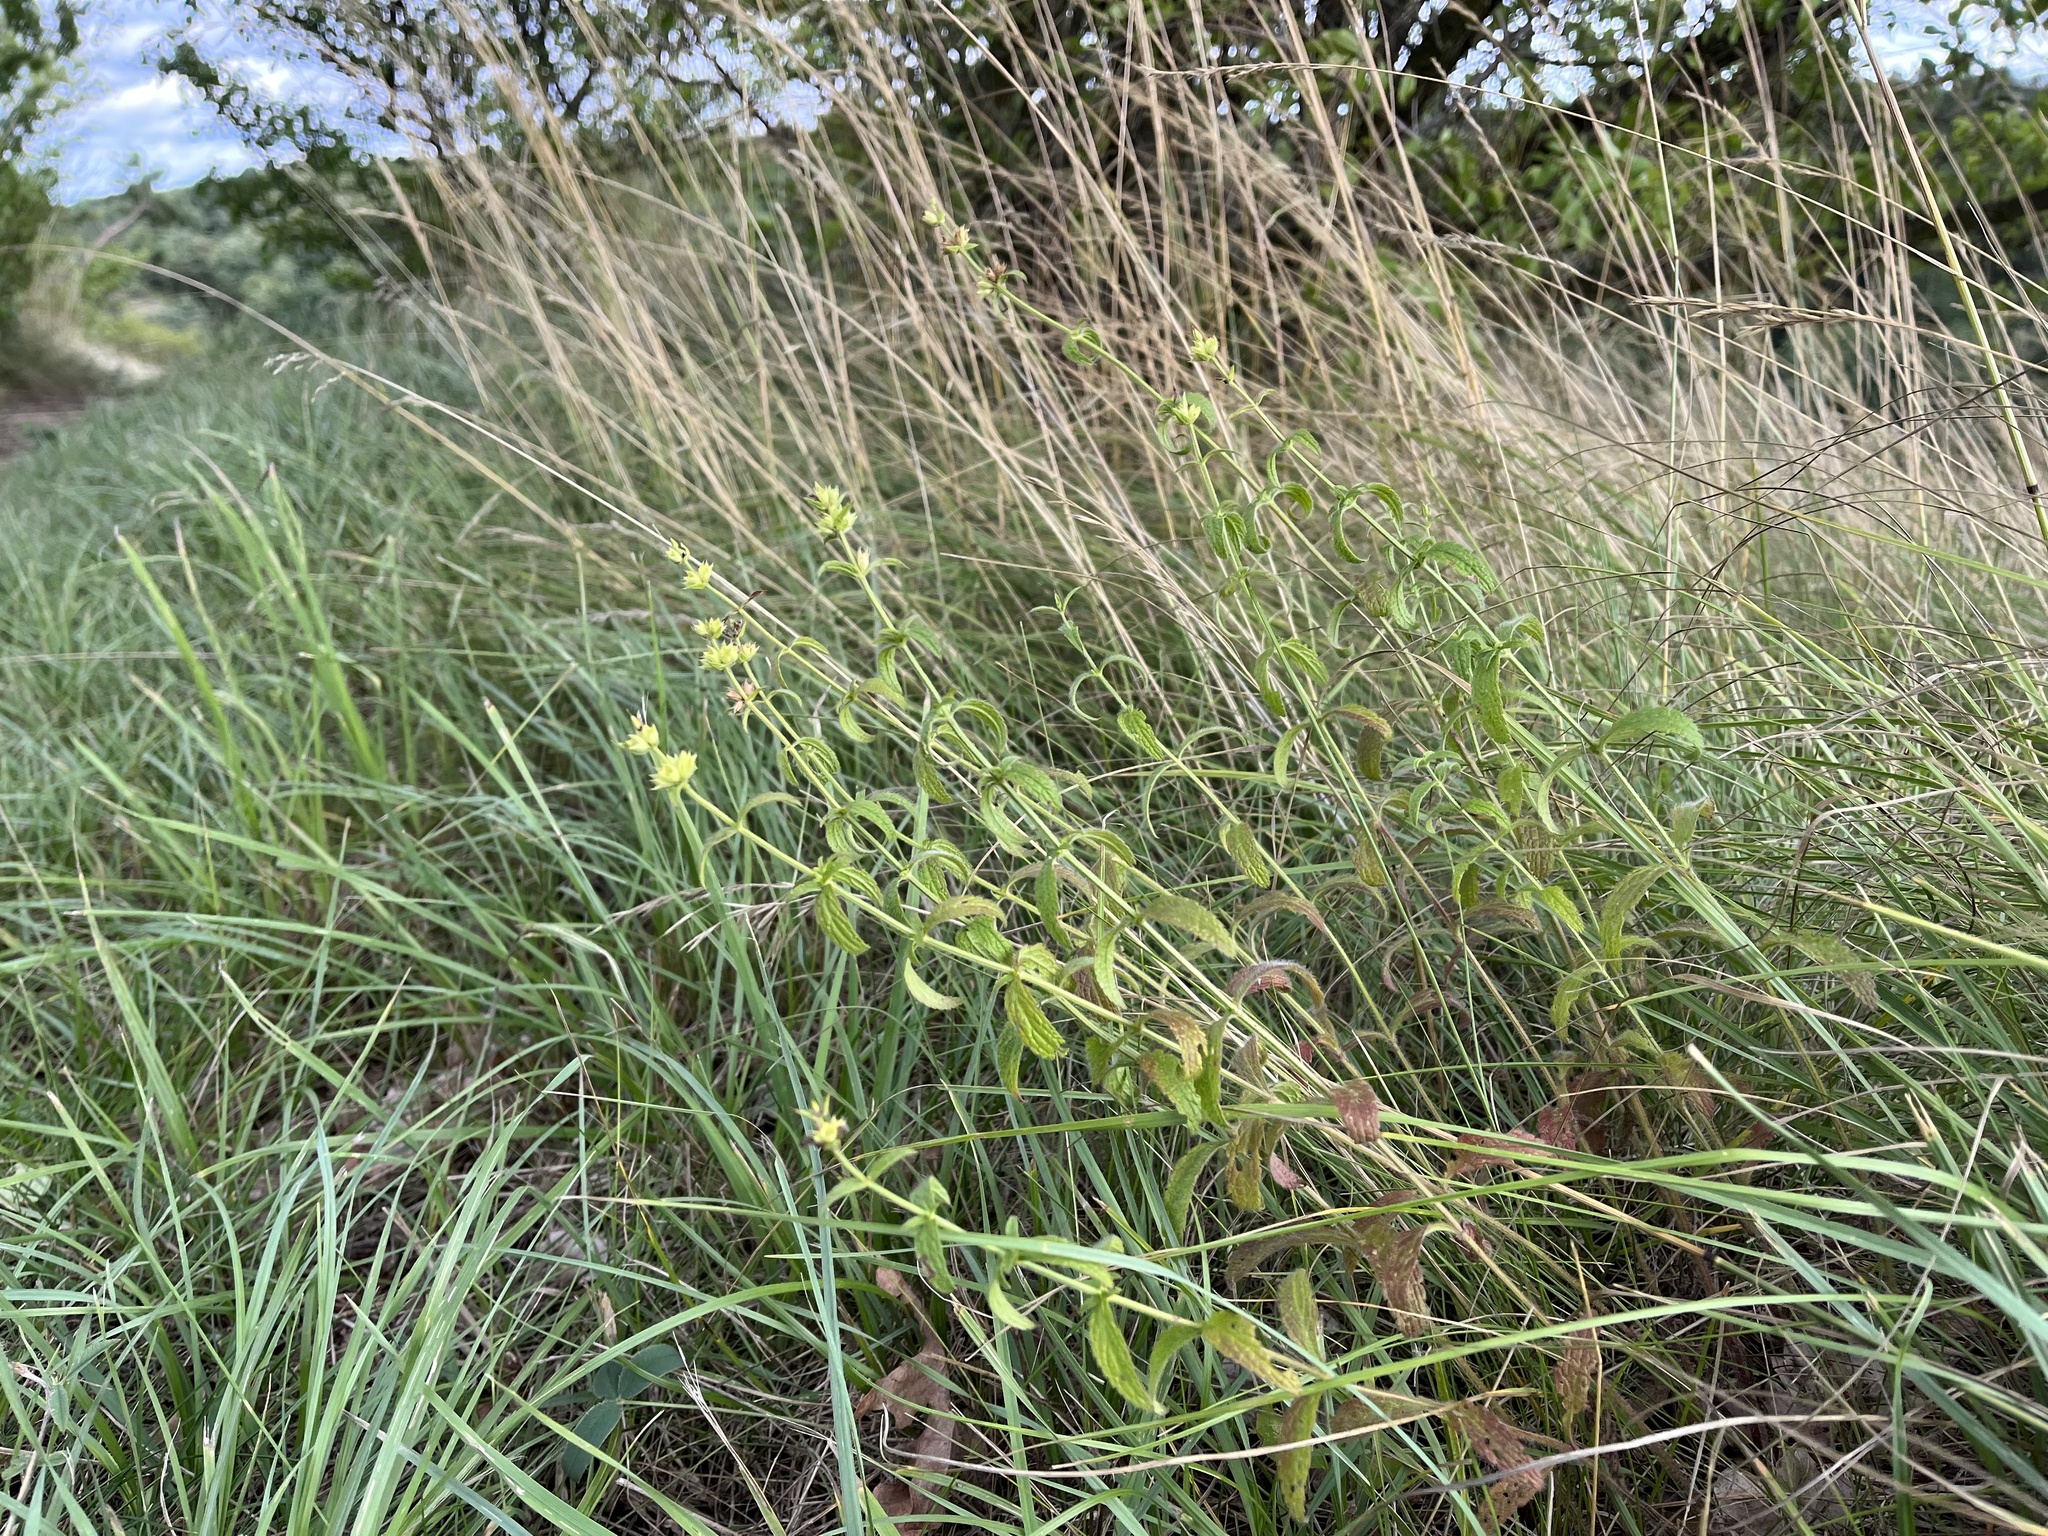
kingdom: Plantae
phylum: Tracheophyta
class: Magnoliopsida
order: Lamiales
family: Lamiaceae
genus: Stachys
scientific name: Stachys recta
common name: Perennial yellow-woundwort
